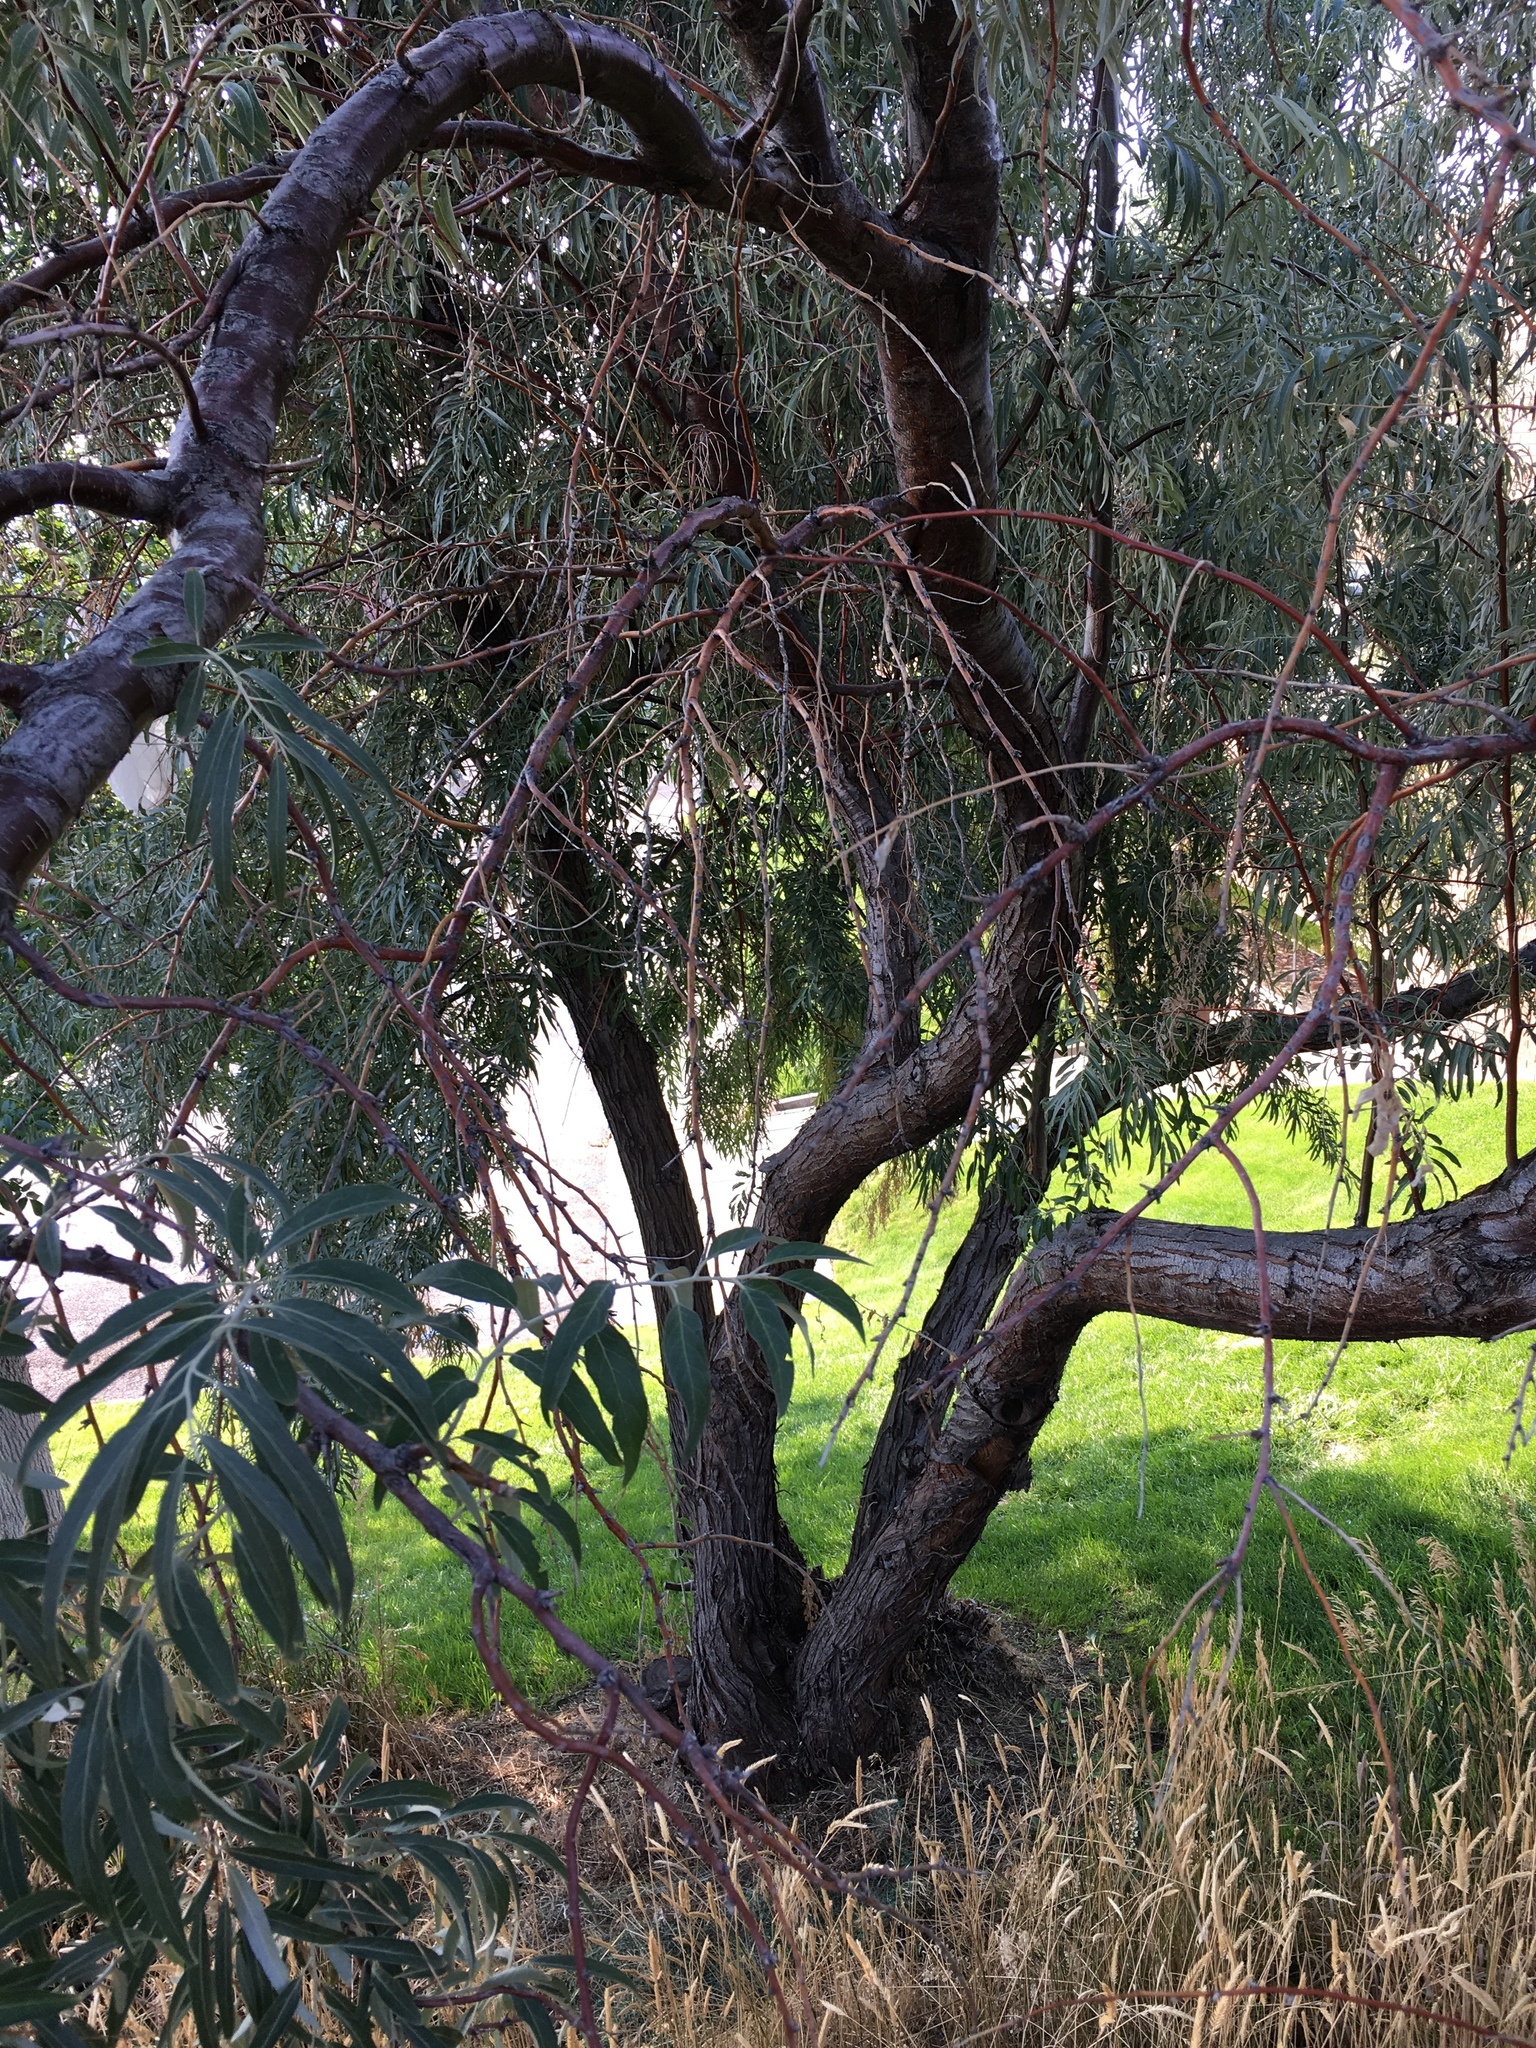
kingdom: Plantae
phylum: Tracheophyta
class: Magnoliopsida
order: Rosales
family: Elaeagnaceae
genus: Elaeagnus
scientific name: Elaeagnus angustifolia
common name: Russian olive
